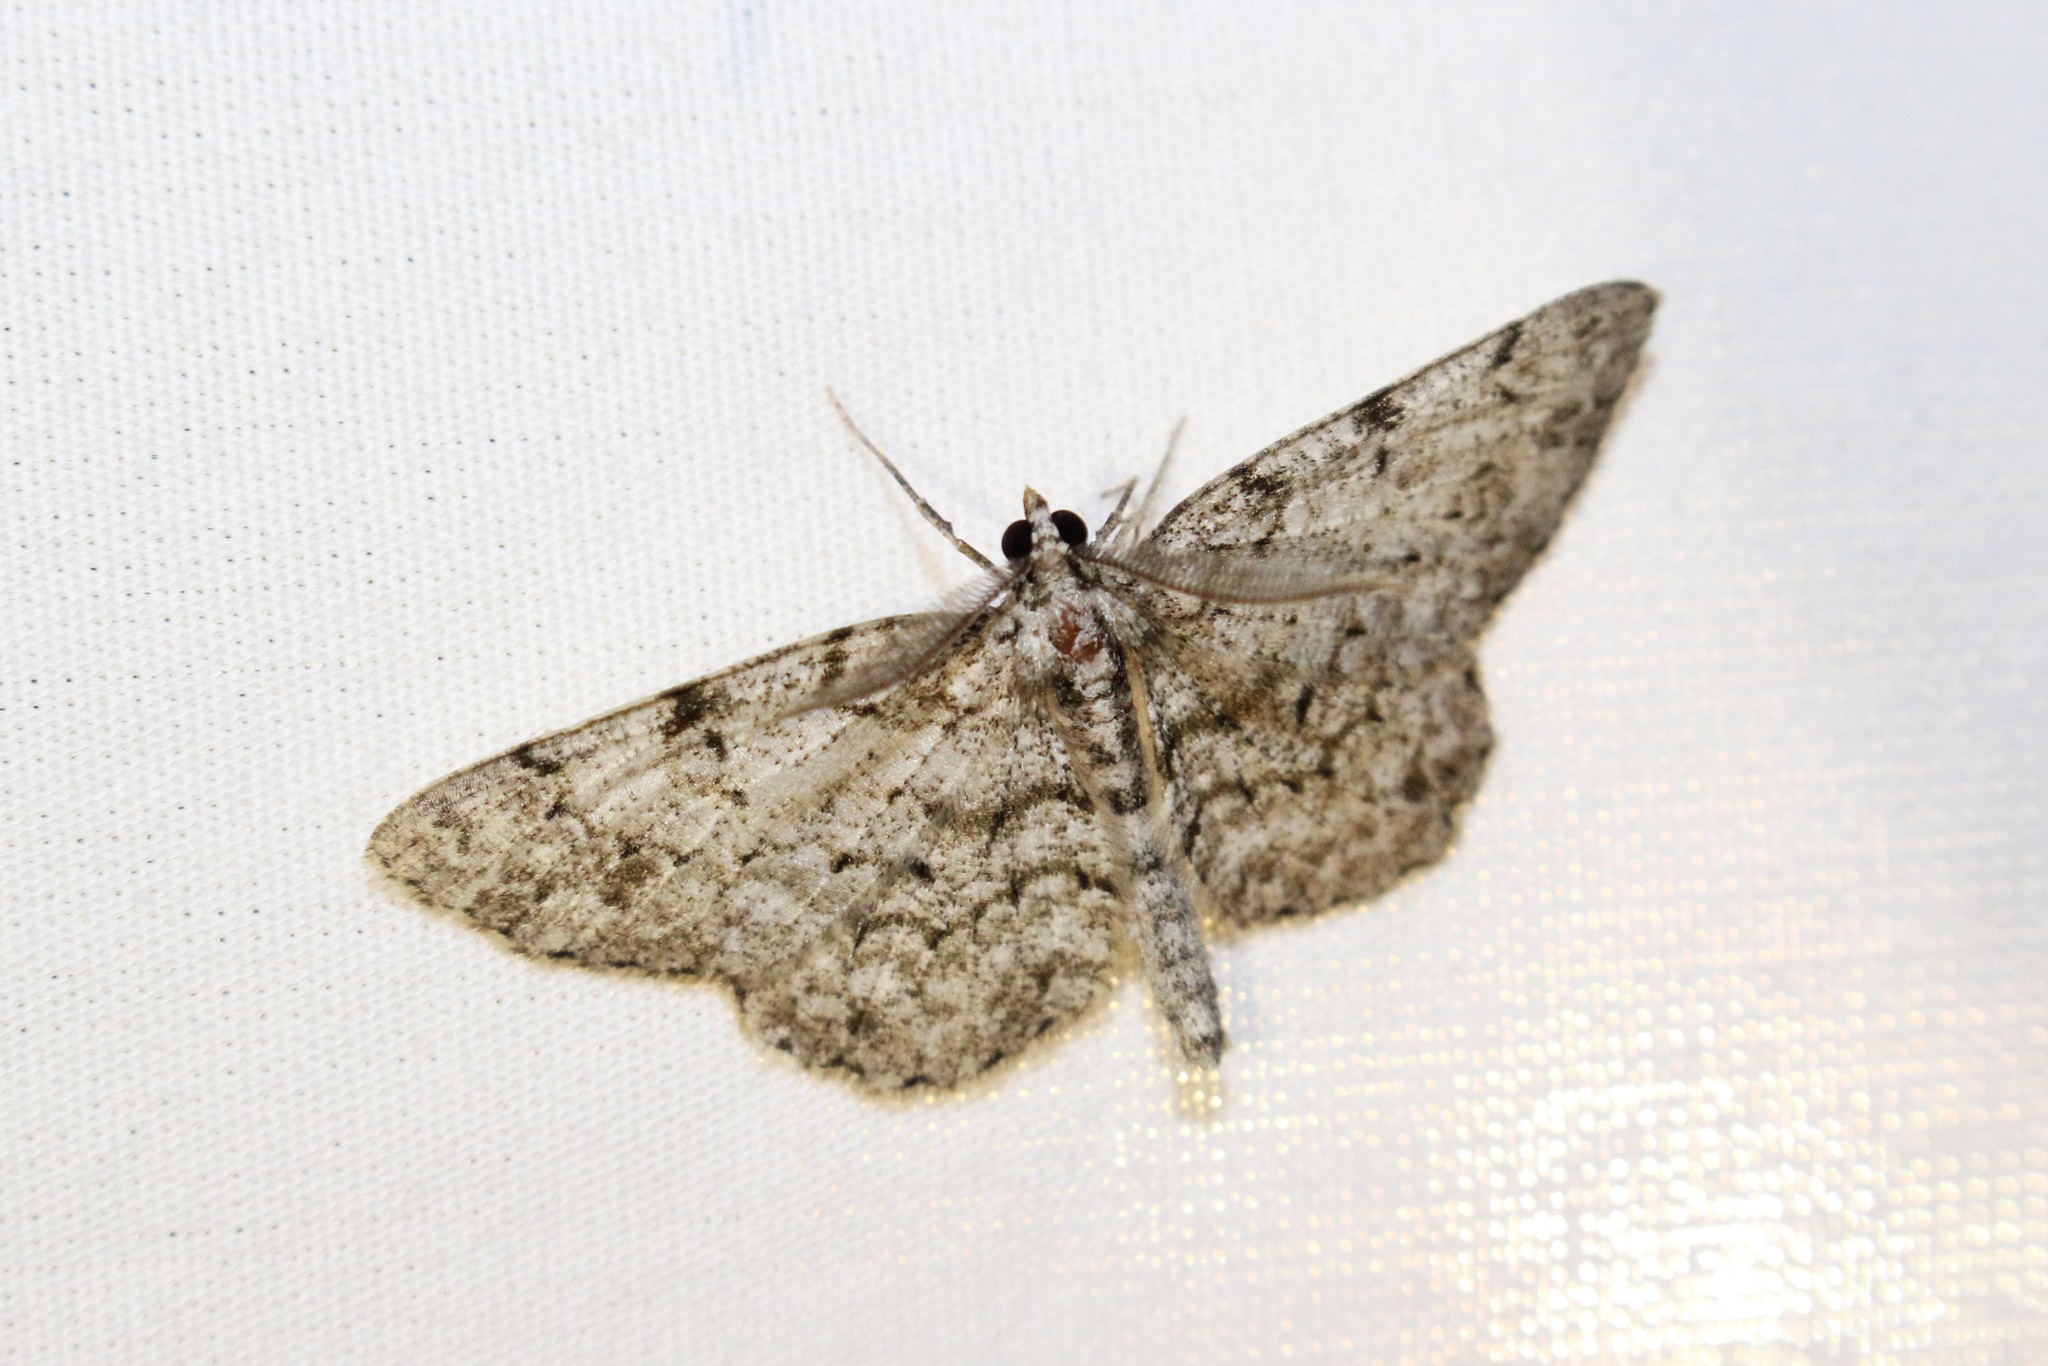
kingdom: Animalia
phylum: Arthropoda
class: Insecta
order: Lepidoptera
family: Geometridae
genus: Protoboarmia
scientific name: Protoboarmia porcelaria
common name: Porcelain gray
